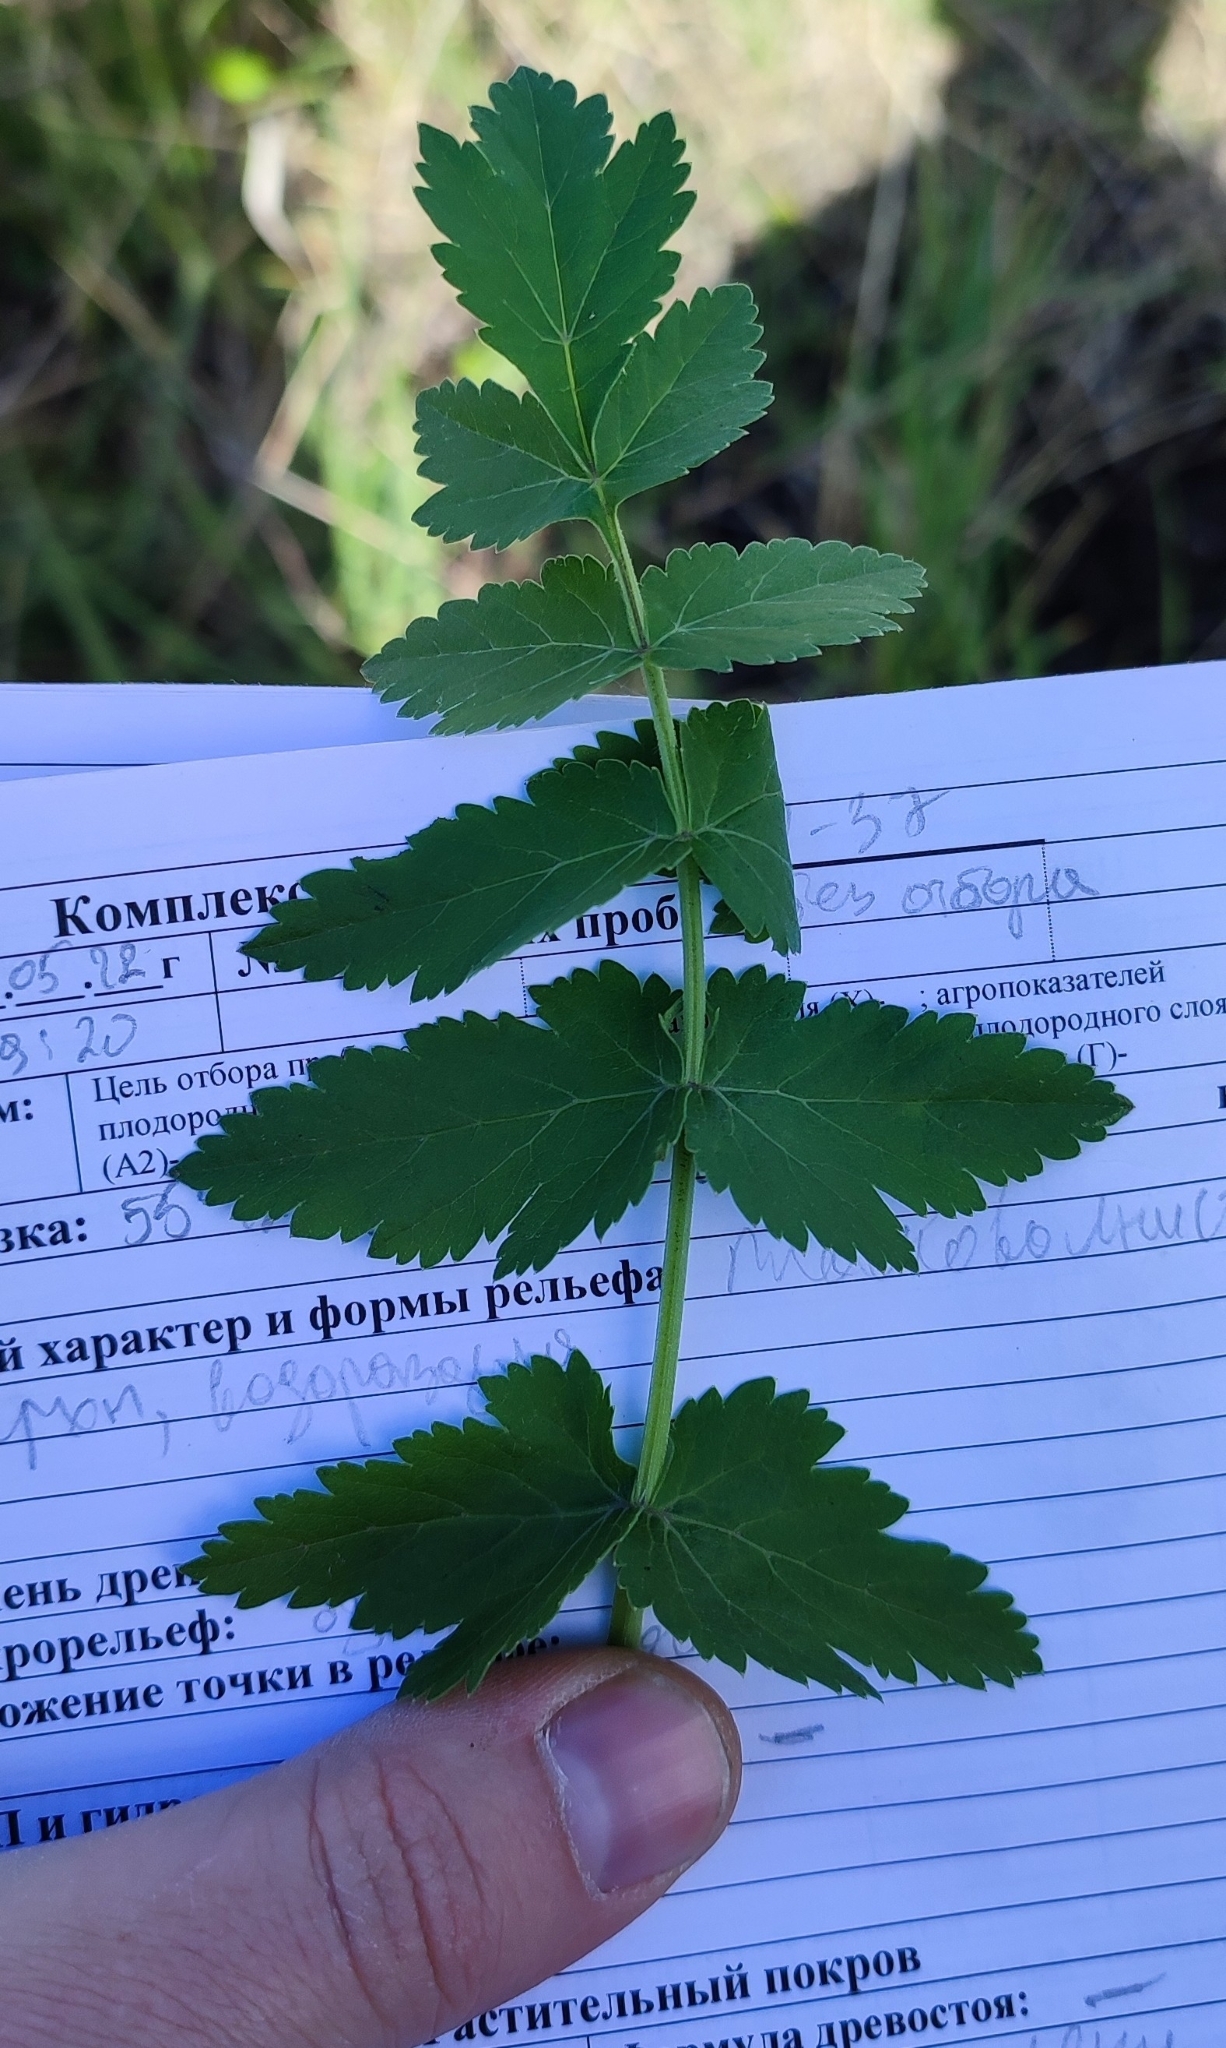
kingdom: Plantae
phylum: Tracheophyta
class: Magnoliopsida
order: Apiales
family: Apiaceae
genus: Pastinaca
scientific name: Pastinaca sativa
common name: Wild parsnip
